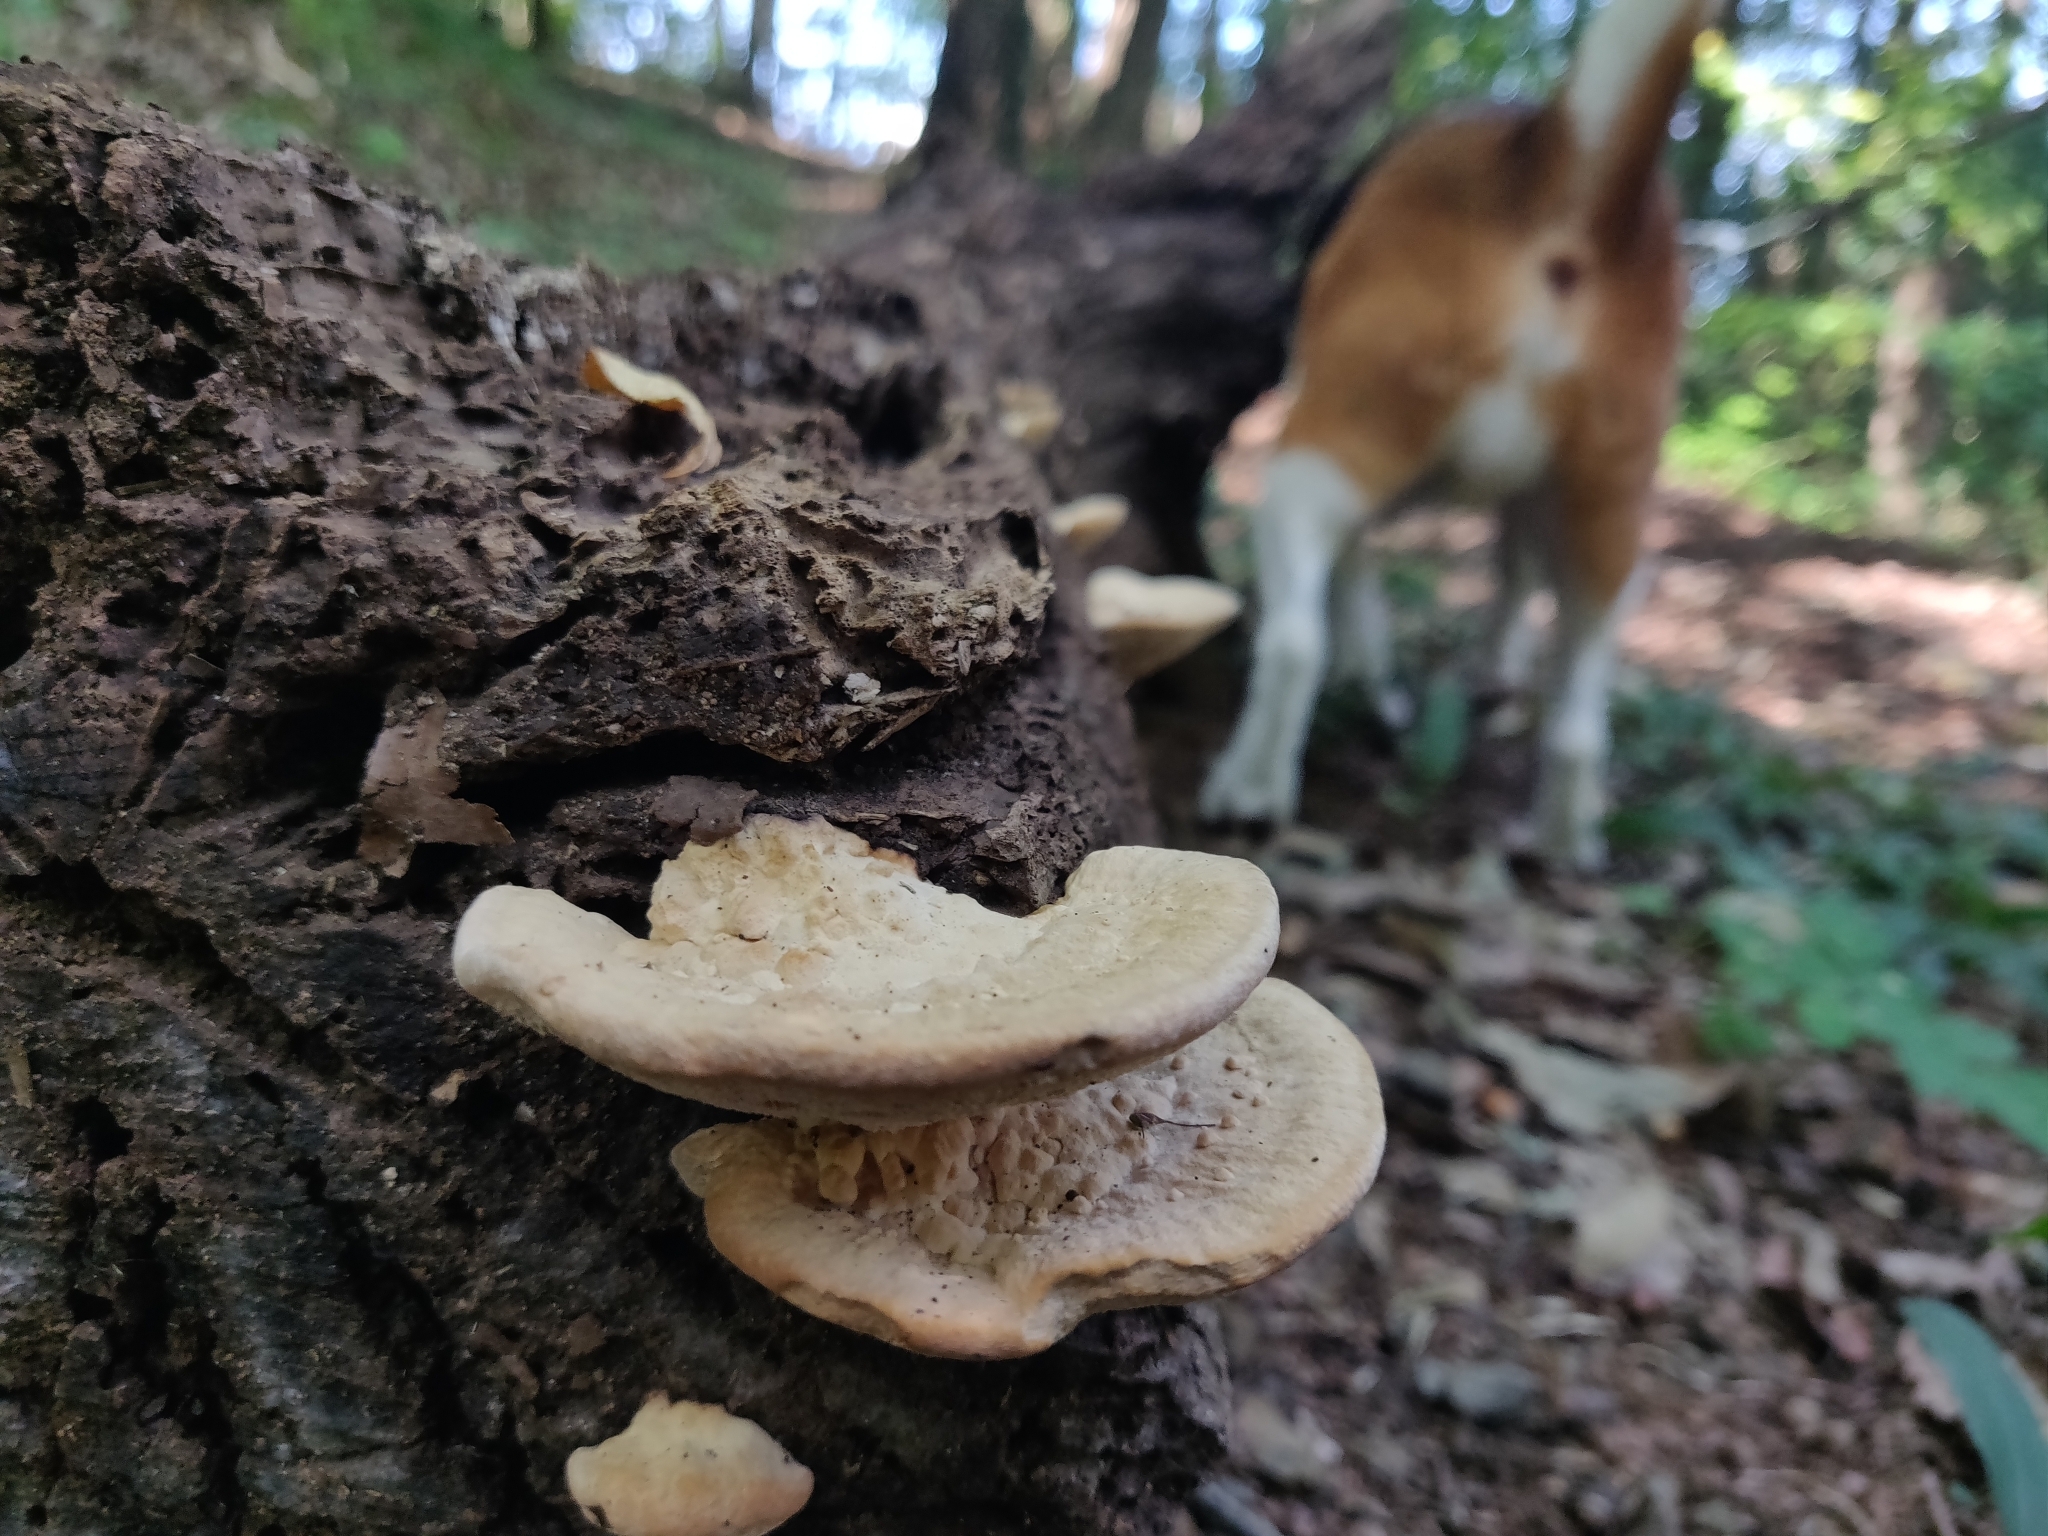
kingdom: Fungi
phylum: Basidiomycota
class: Agaricomycetes
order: Polyporales
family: Fomitopsidaceae
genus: Fomitopsis
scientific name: Fomitopsis
